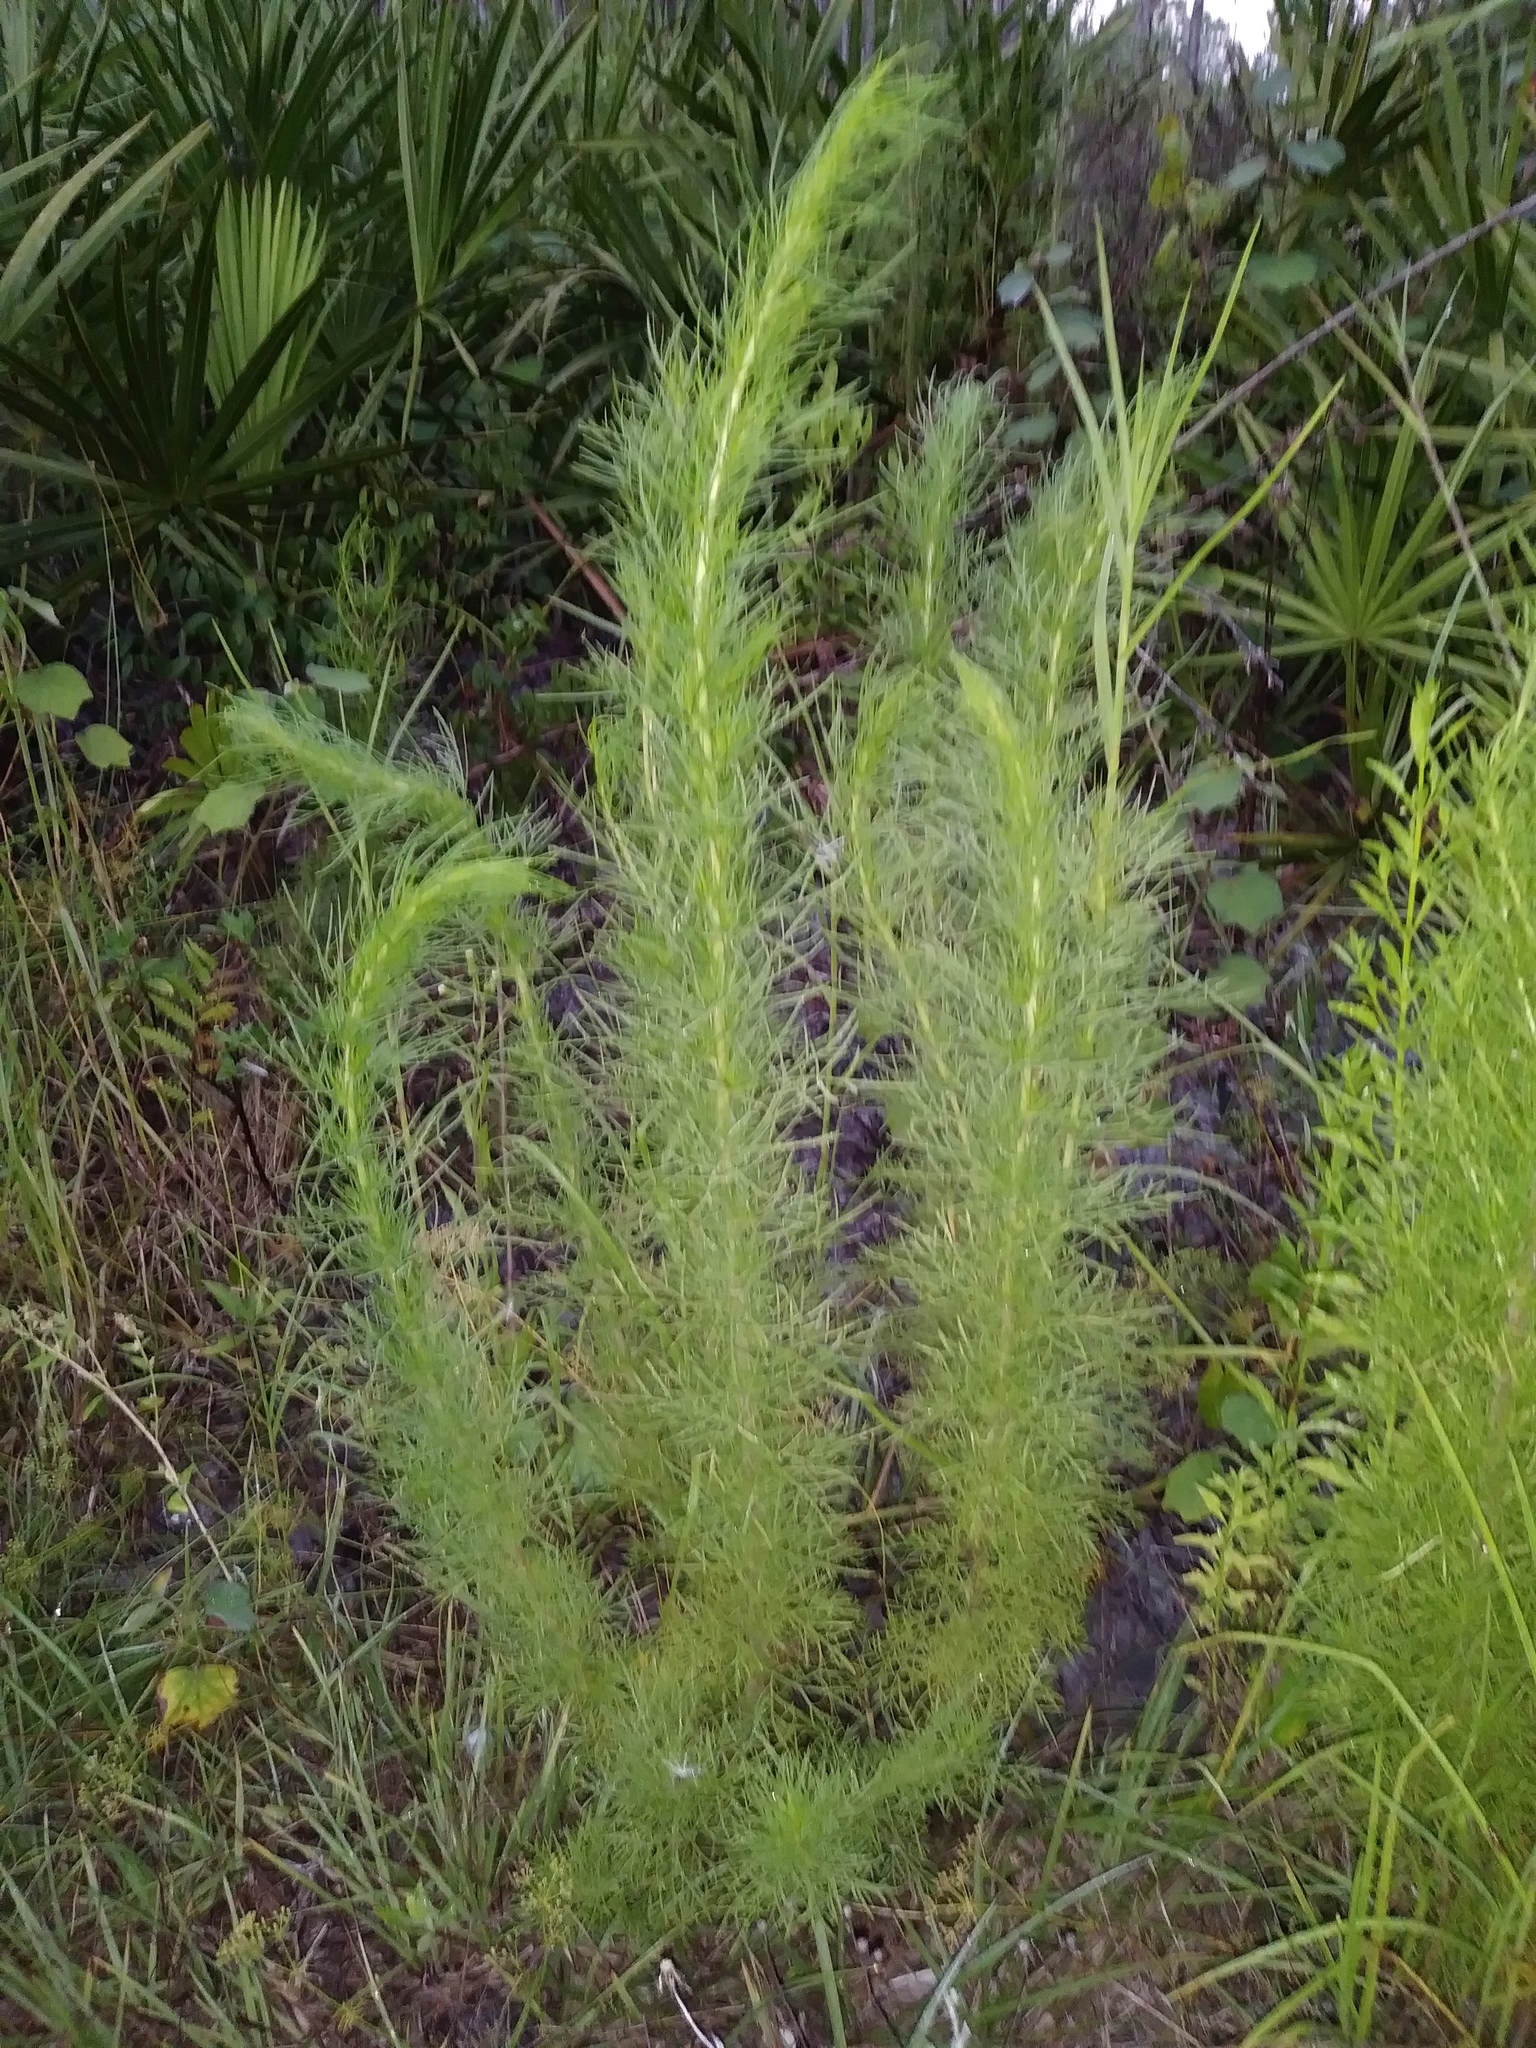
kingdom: Plantae
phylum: Tracheophyta
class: Magnoliopsida
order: Asterales
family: Asteraceae
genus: Eupatorium
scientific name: Eupatorium capillifolium
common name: Dog-fennel
